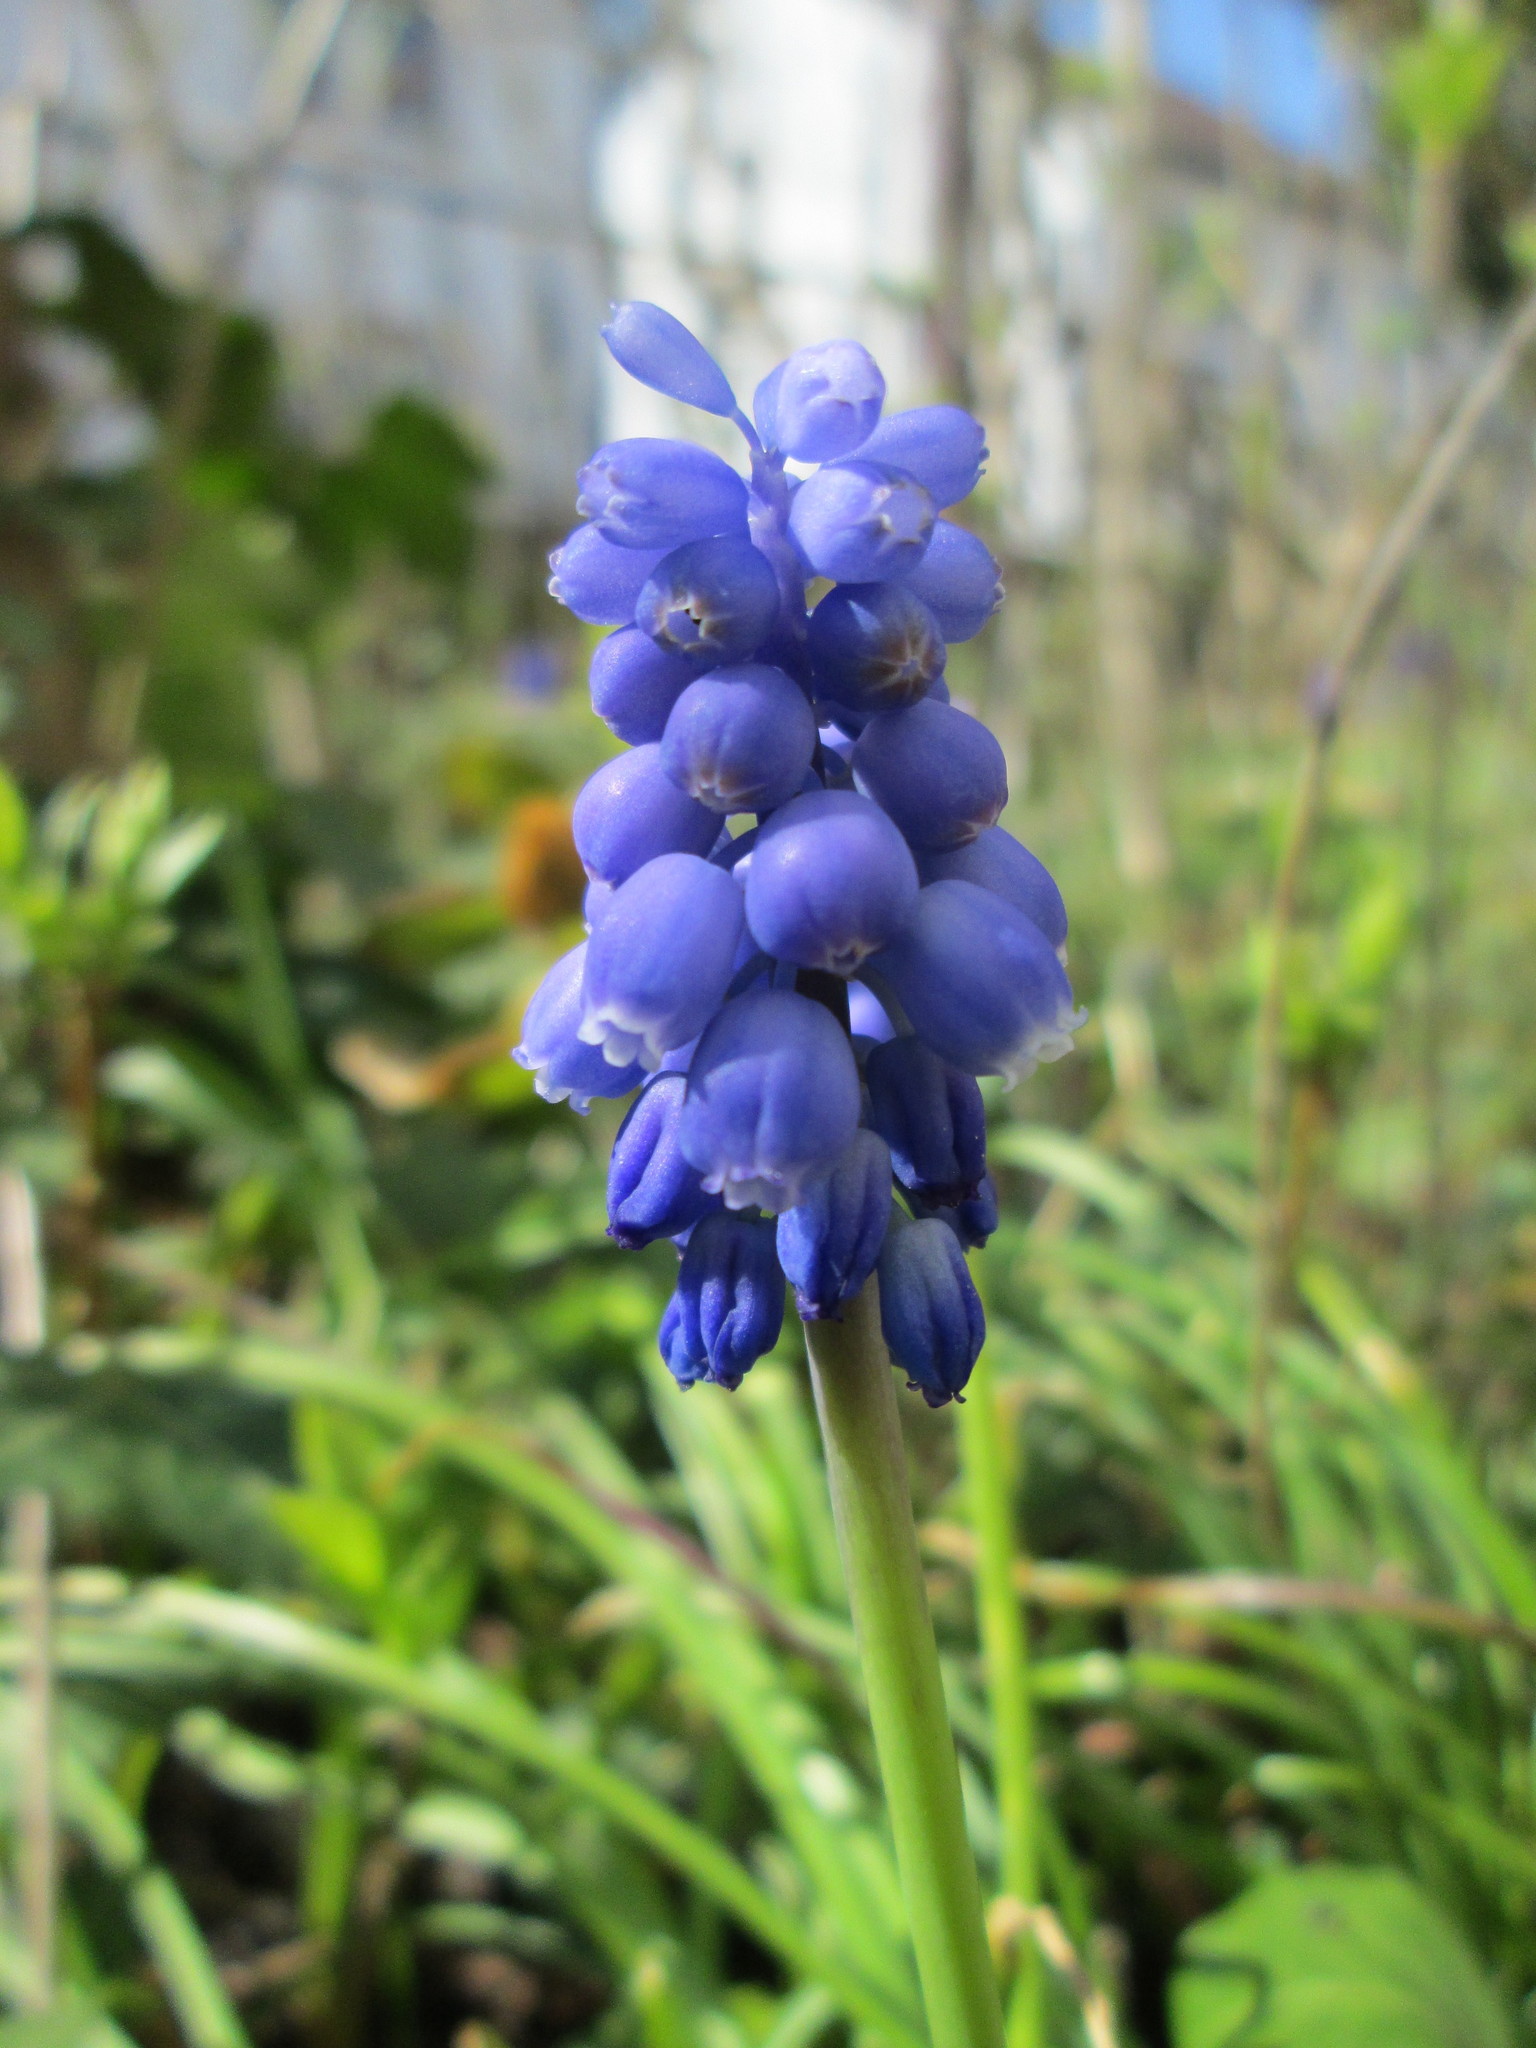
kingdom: Plantae
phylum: Tracheophyta
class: Liliopsida
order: Asparagales
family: Asparagaceae
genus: Muscari
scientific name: Muscari armeniacum
